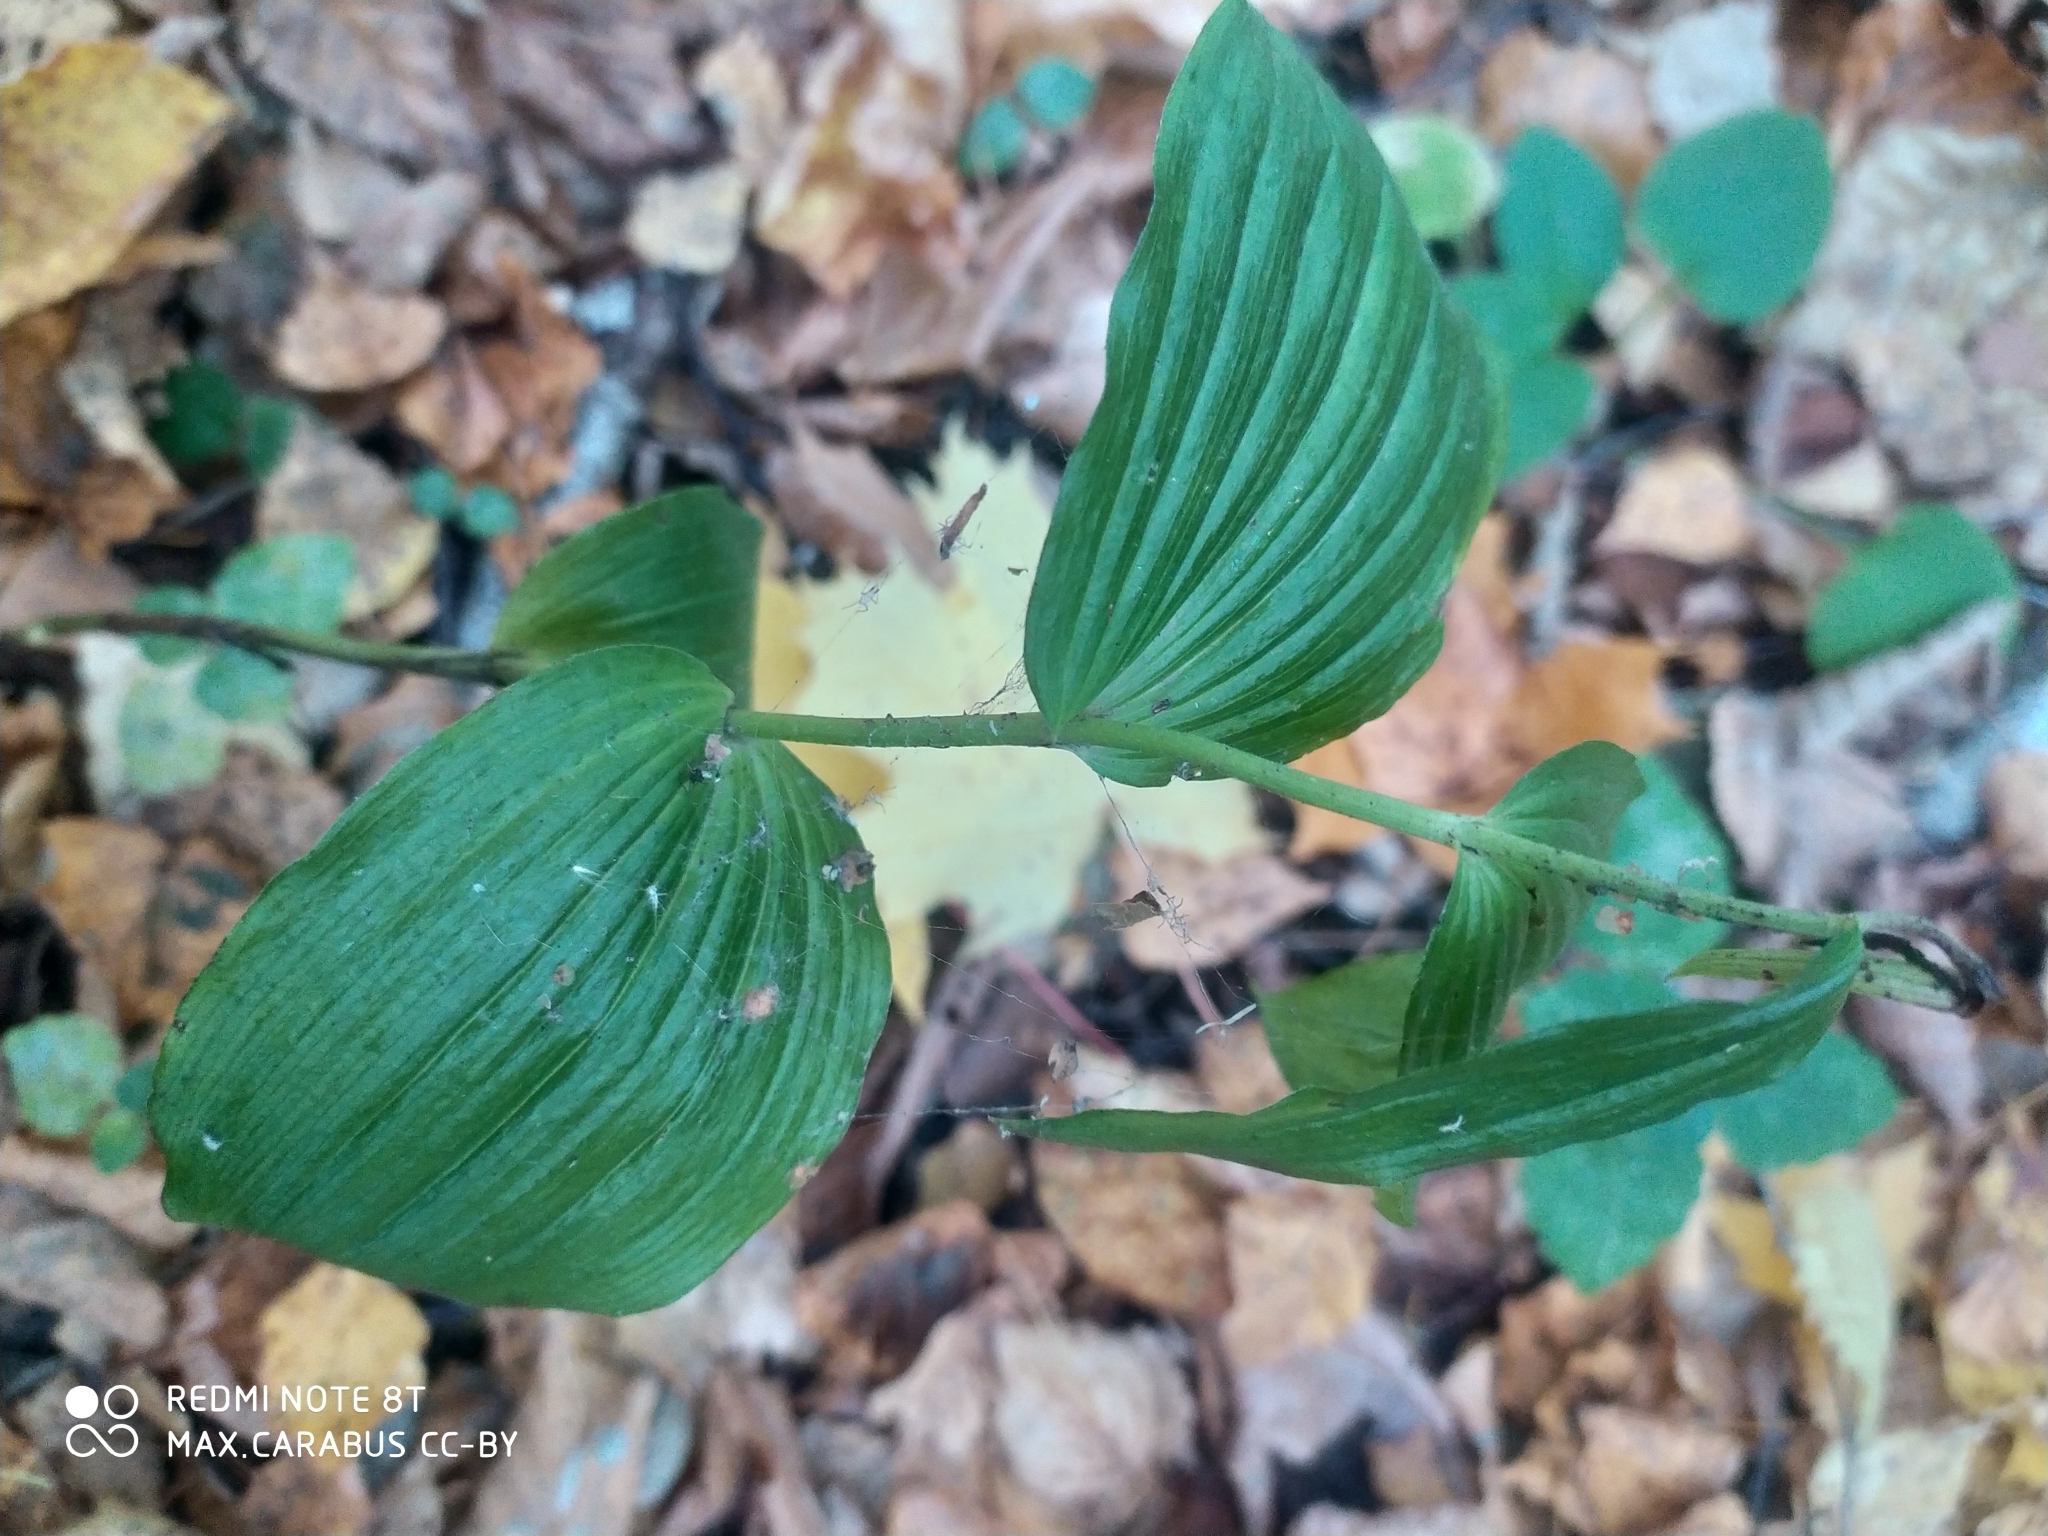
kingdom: Plantae
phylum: Tracheophyta
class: Liliopsida
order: Asparagales
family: Orchidaceae
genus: Epipactis
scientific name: Epipactis helleborine
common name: Broad-leaved helleborine
